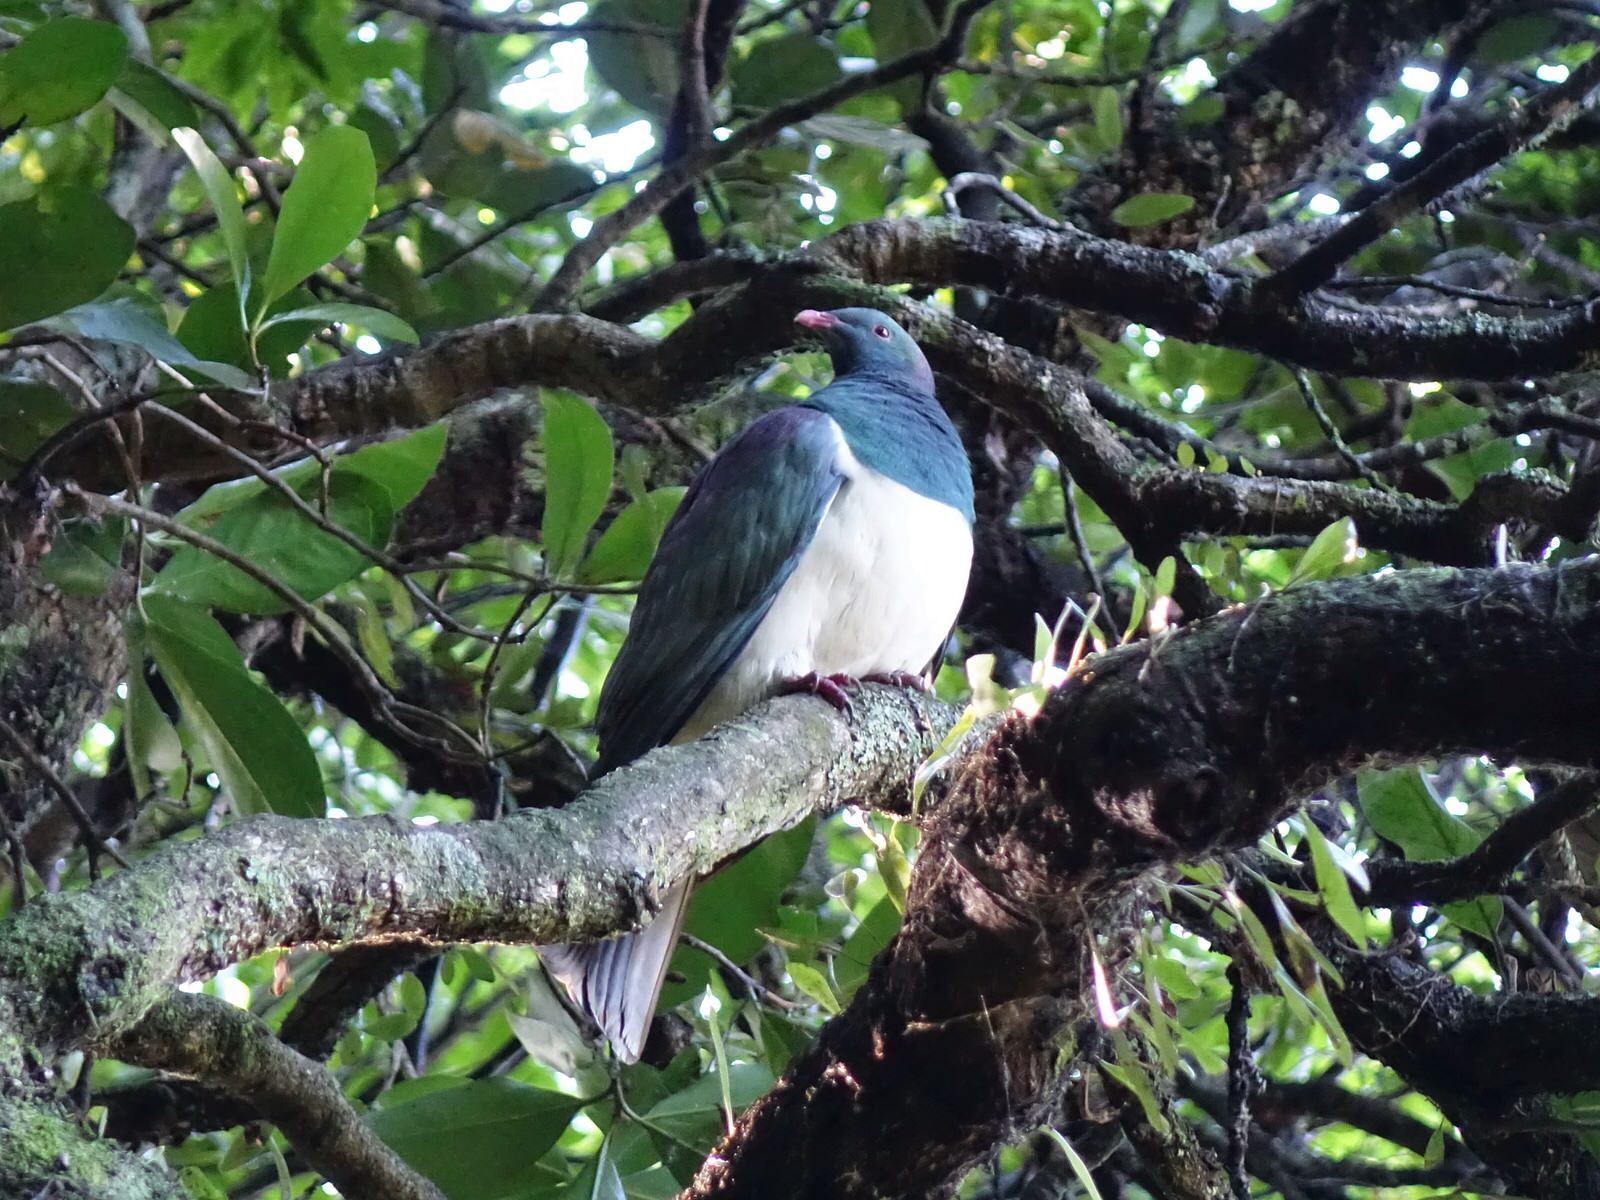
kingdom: Animalia
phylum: Chordata
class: Aves
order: Columbiformes
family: Columbidae
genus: Hemiphaga
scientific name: Hemiphaga novaeseelandiae
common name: New zealand pigeon
